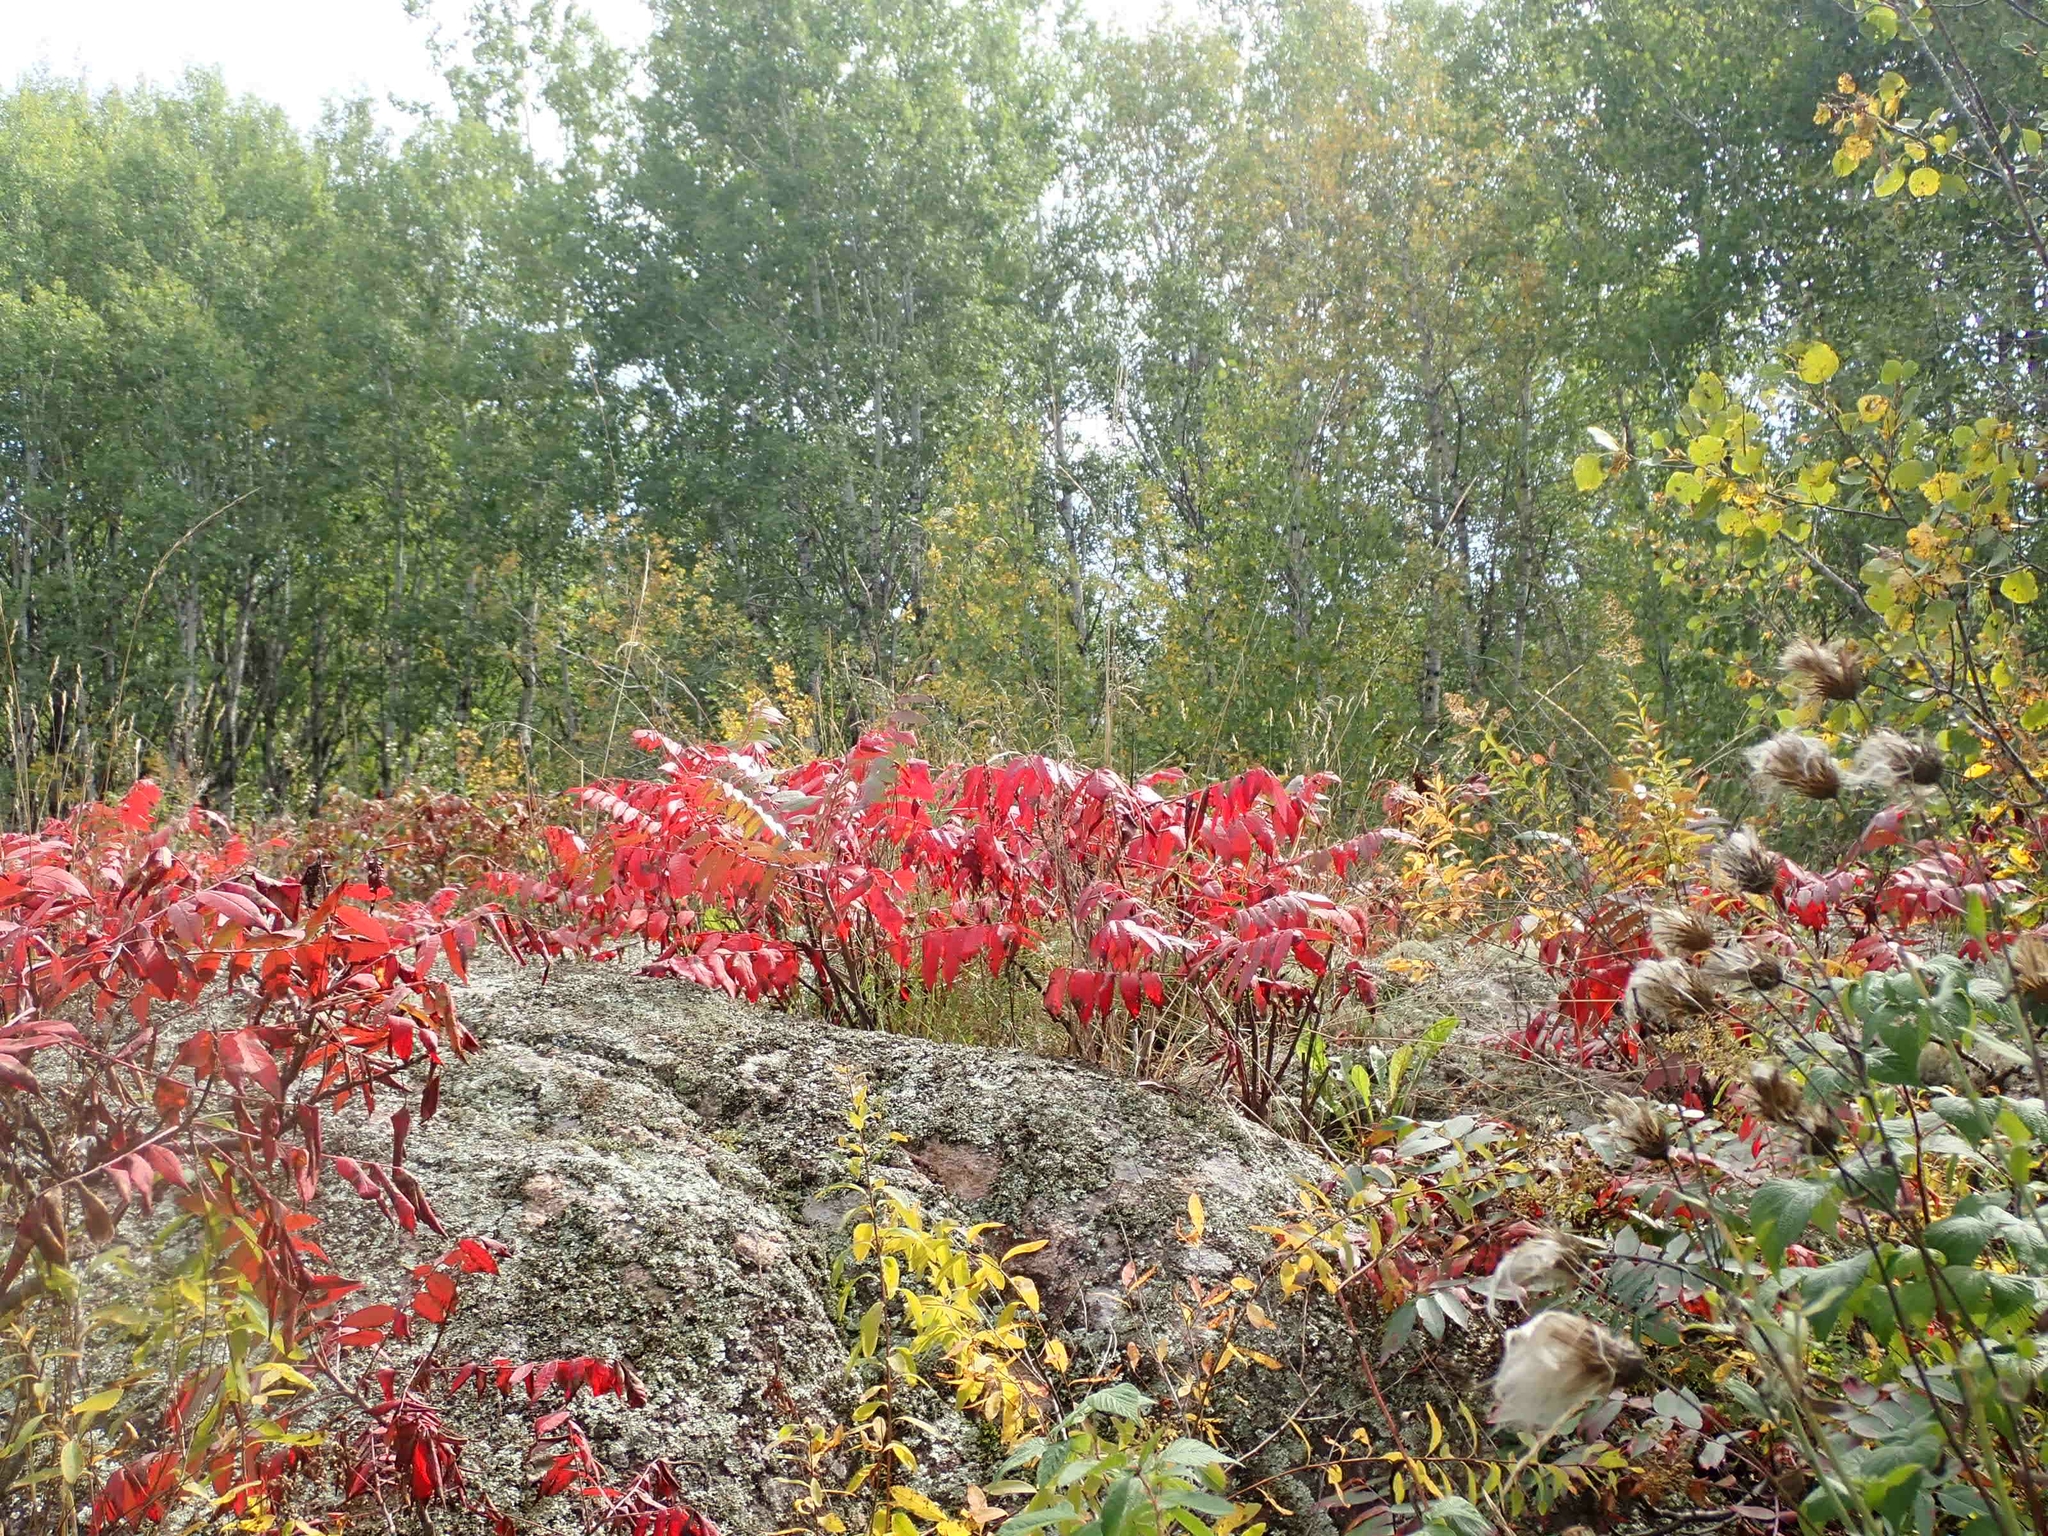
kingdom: Plantae
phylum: Tracheophyta
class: Magnoliopsida
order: Sapindales
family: Anacardiaceae
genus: Rhus
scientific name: Rhus glabra
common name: Scarlet sumac
